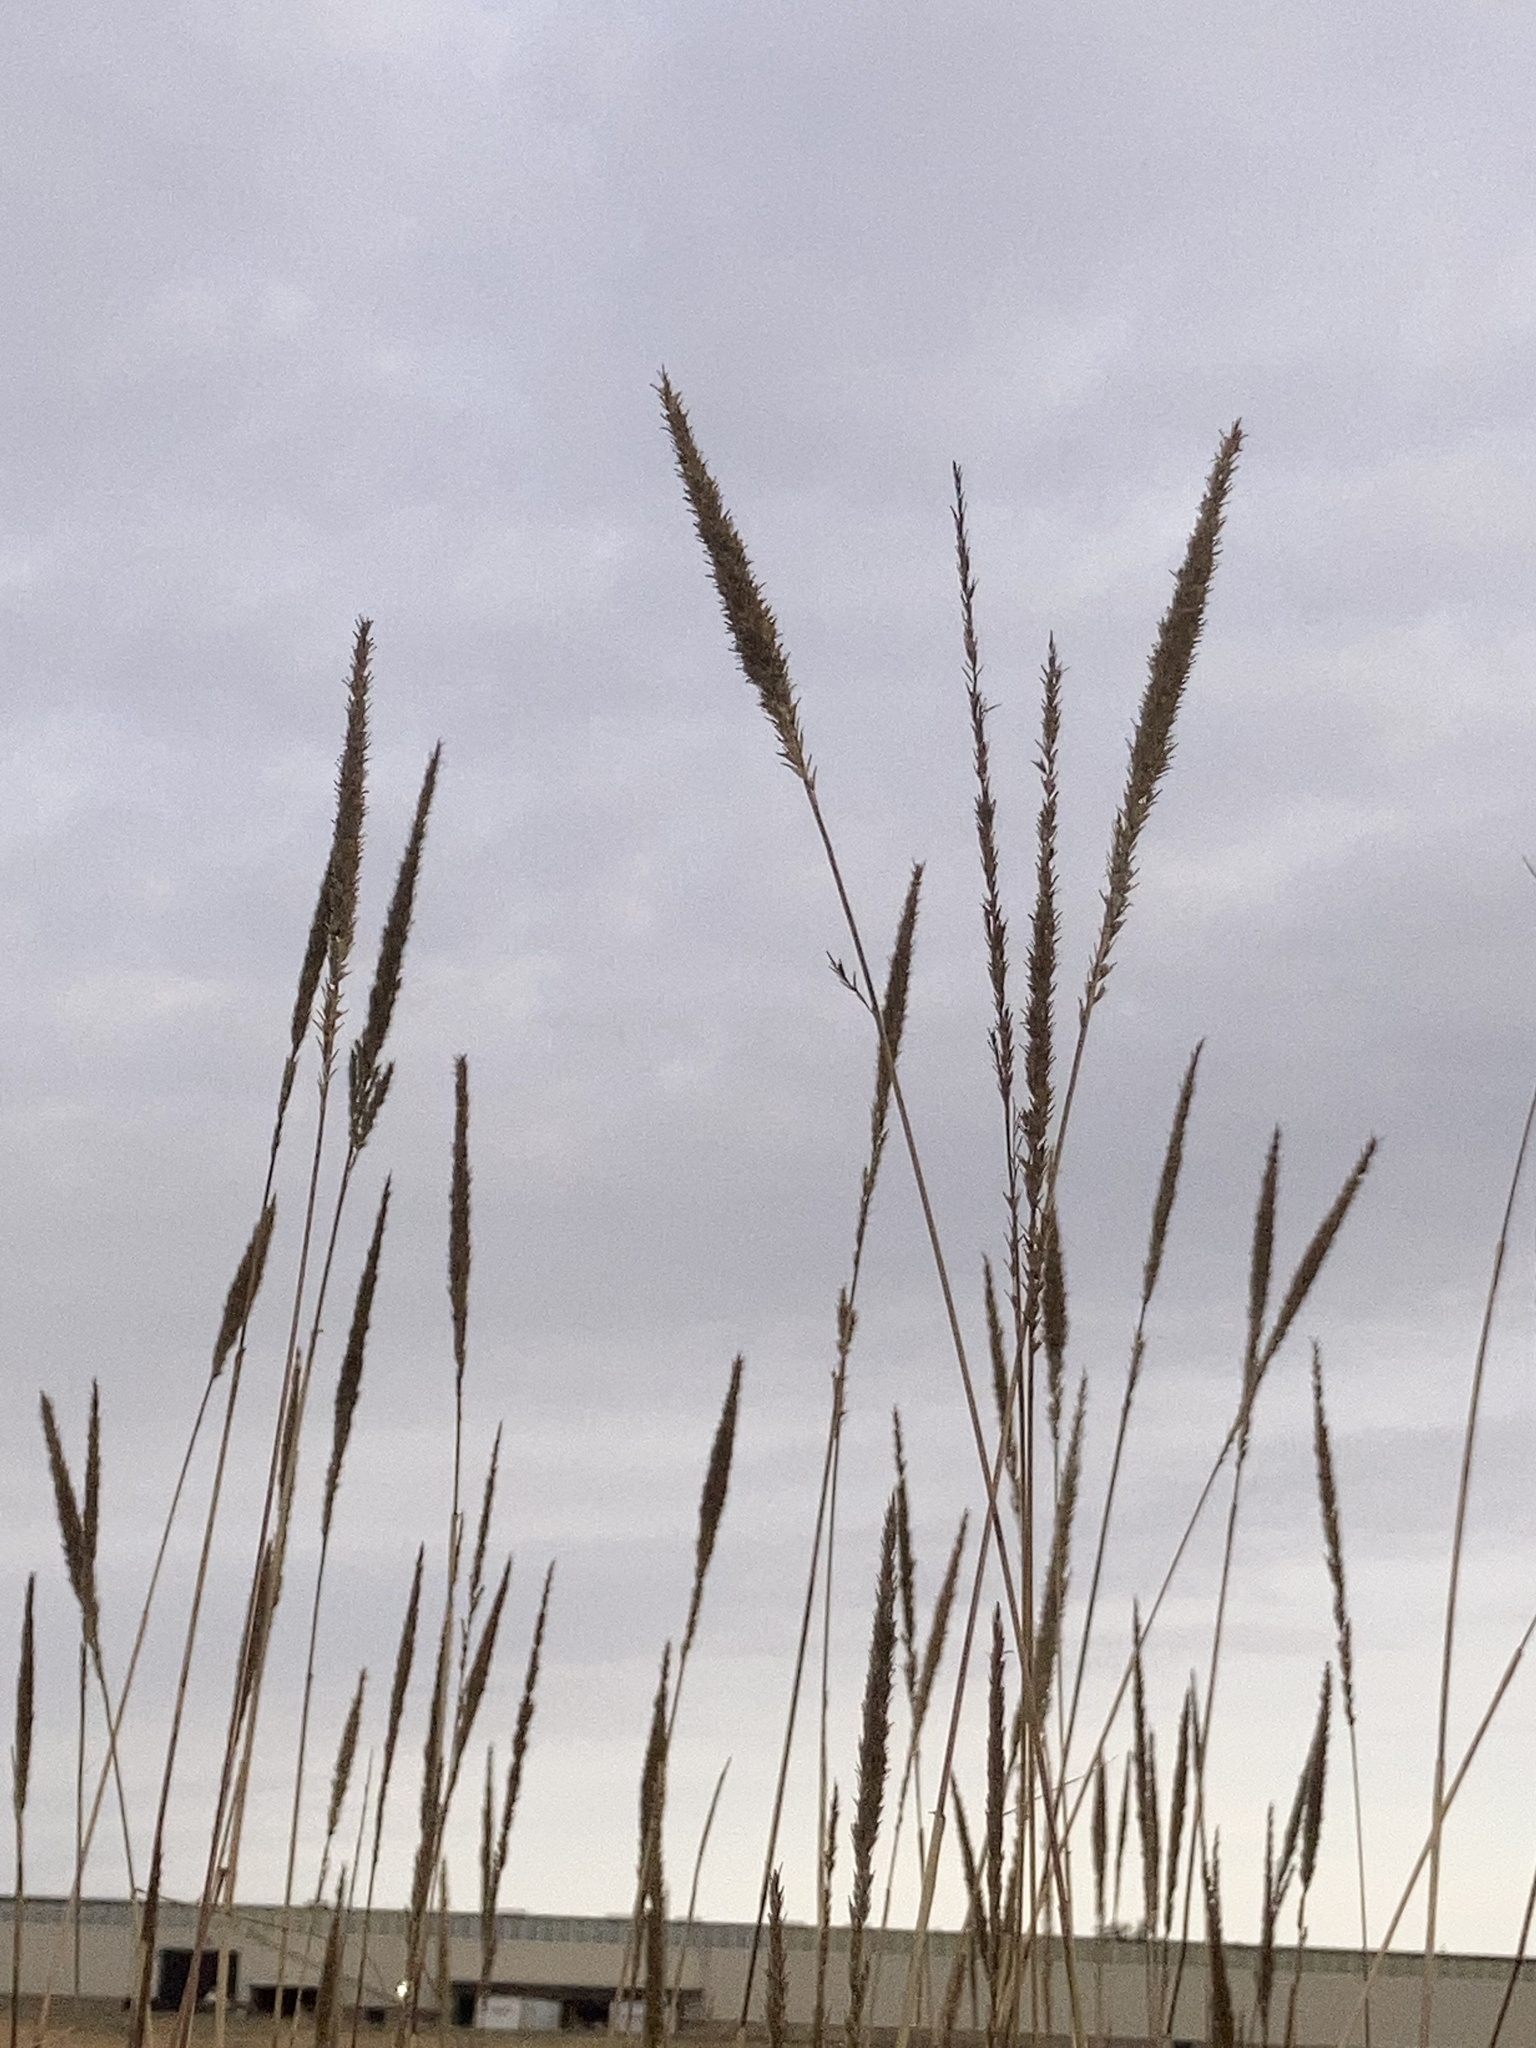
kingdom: Plantae
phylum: Tracheophyta
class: Liliopsida
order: Poales
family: Poaceae
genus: Tridens
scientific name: Tridens strictus
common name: Long-spike tridens
